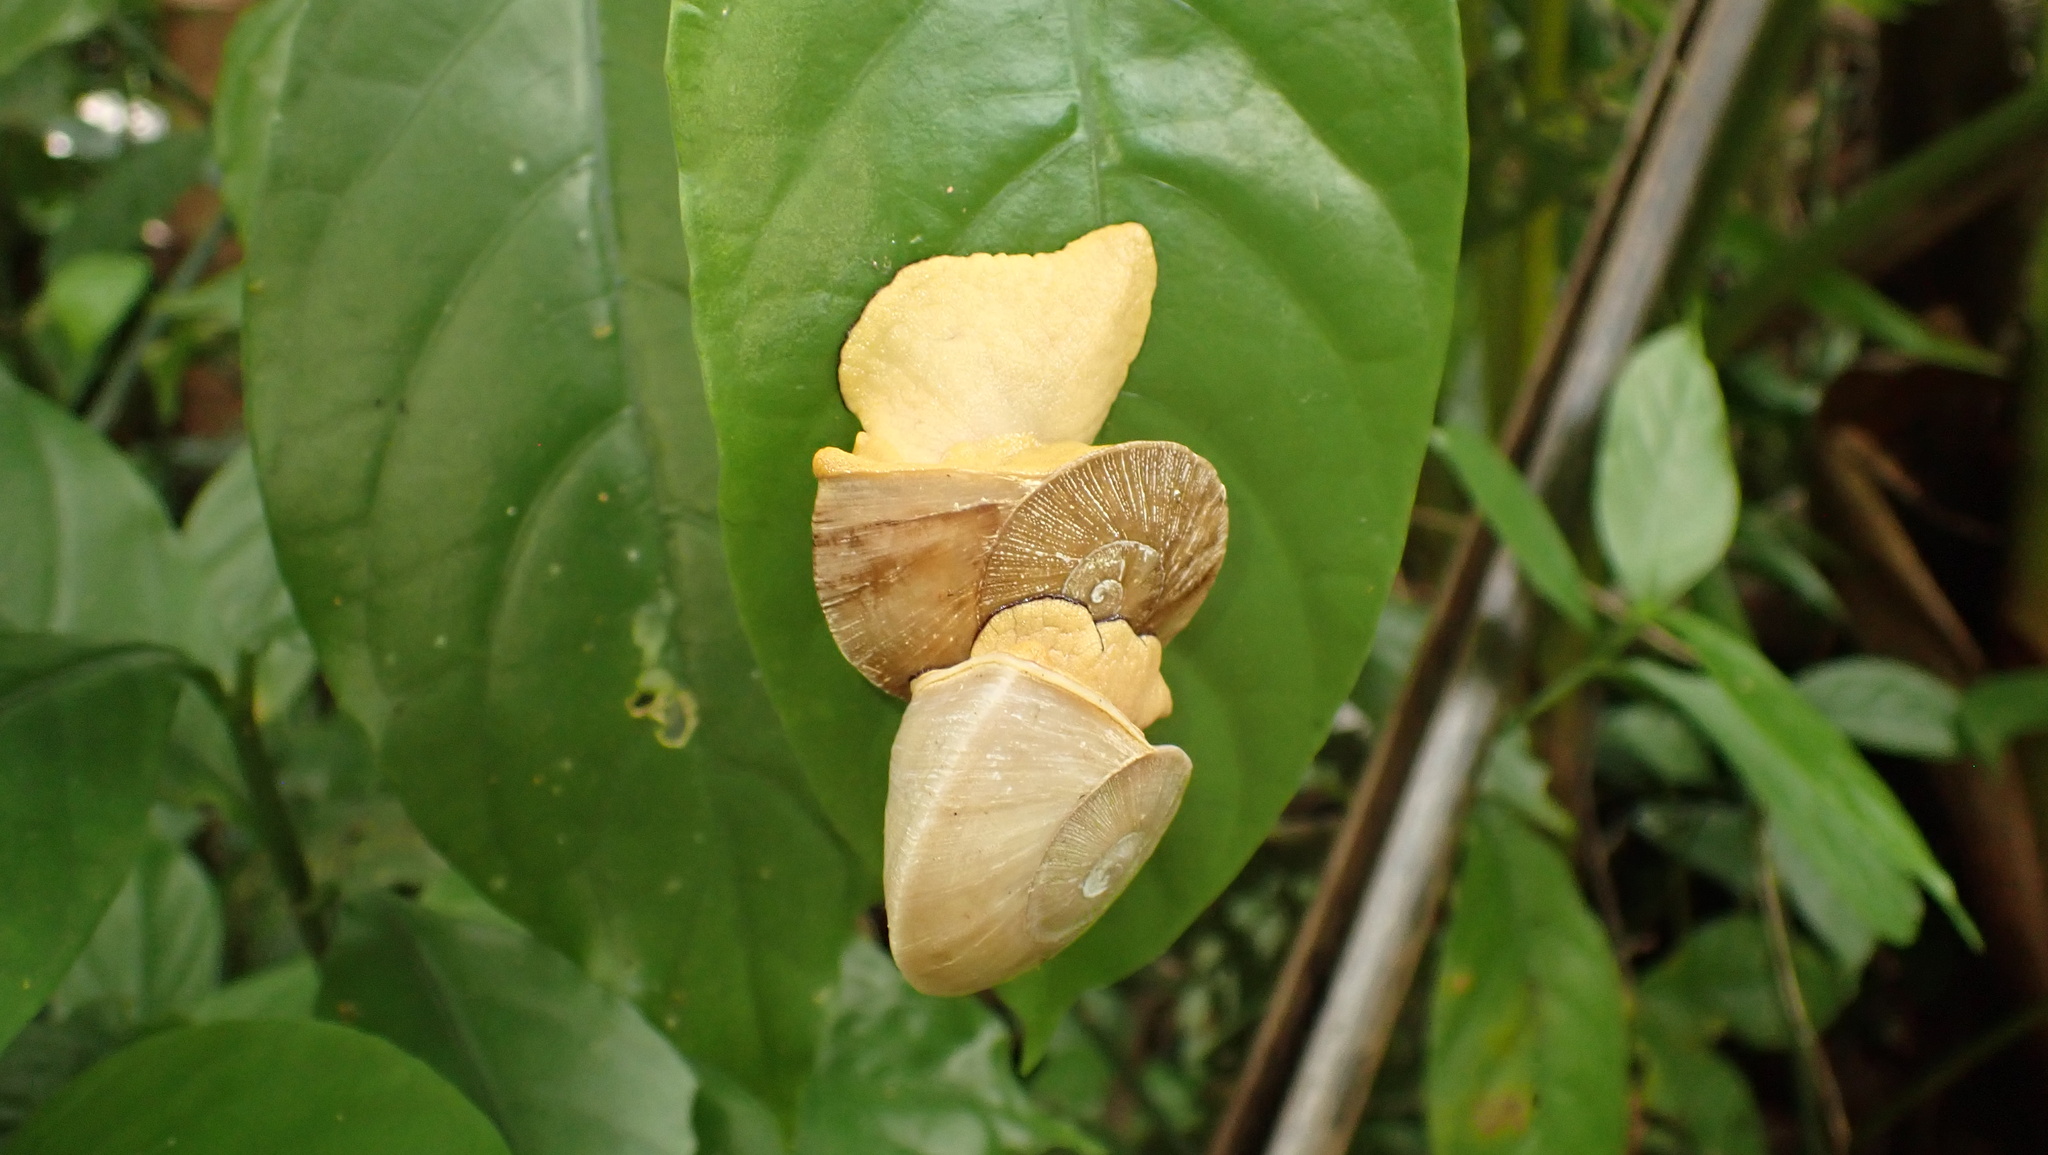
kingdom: Animalia
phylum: Mollusca
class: Gastropoda
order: Stylommatophora
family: Sagdidae
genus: Parthena
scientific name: Parthena acutangula
